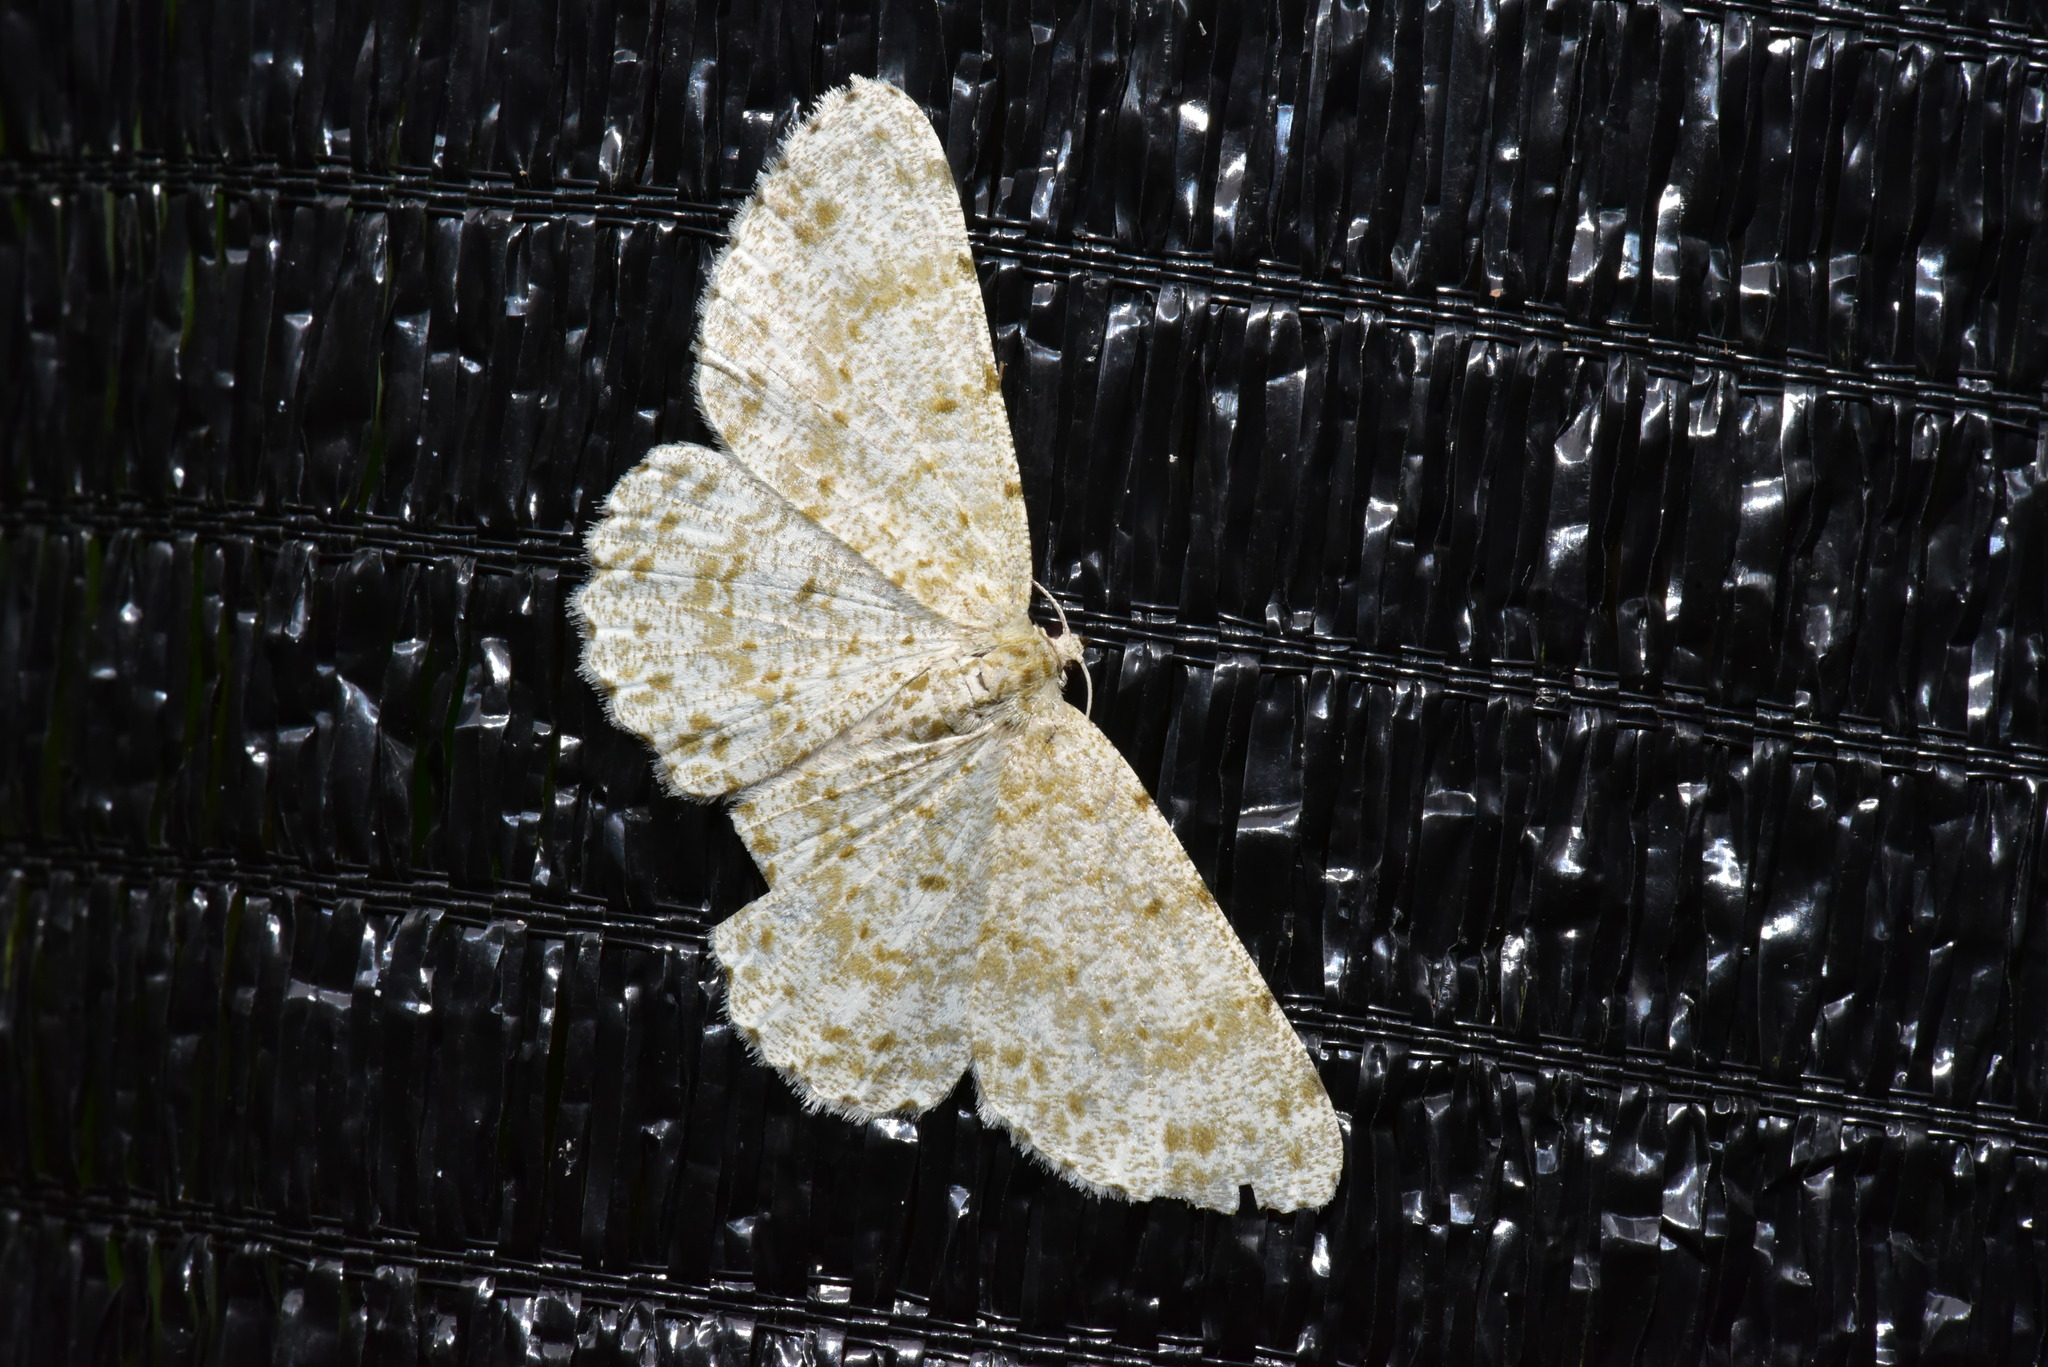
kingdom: Animalia
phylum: Arthropoda
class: Insecta
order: Lepidoptera
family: Geometridae
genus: Catoria
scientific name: Catoria sublavaria
